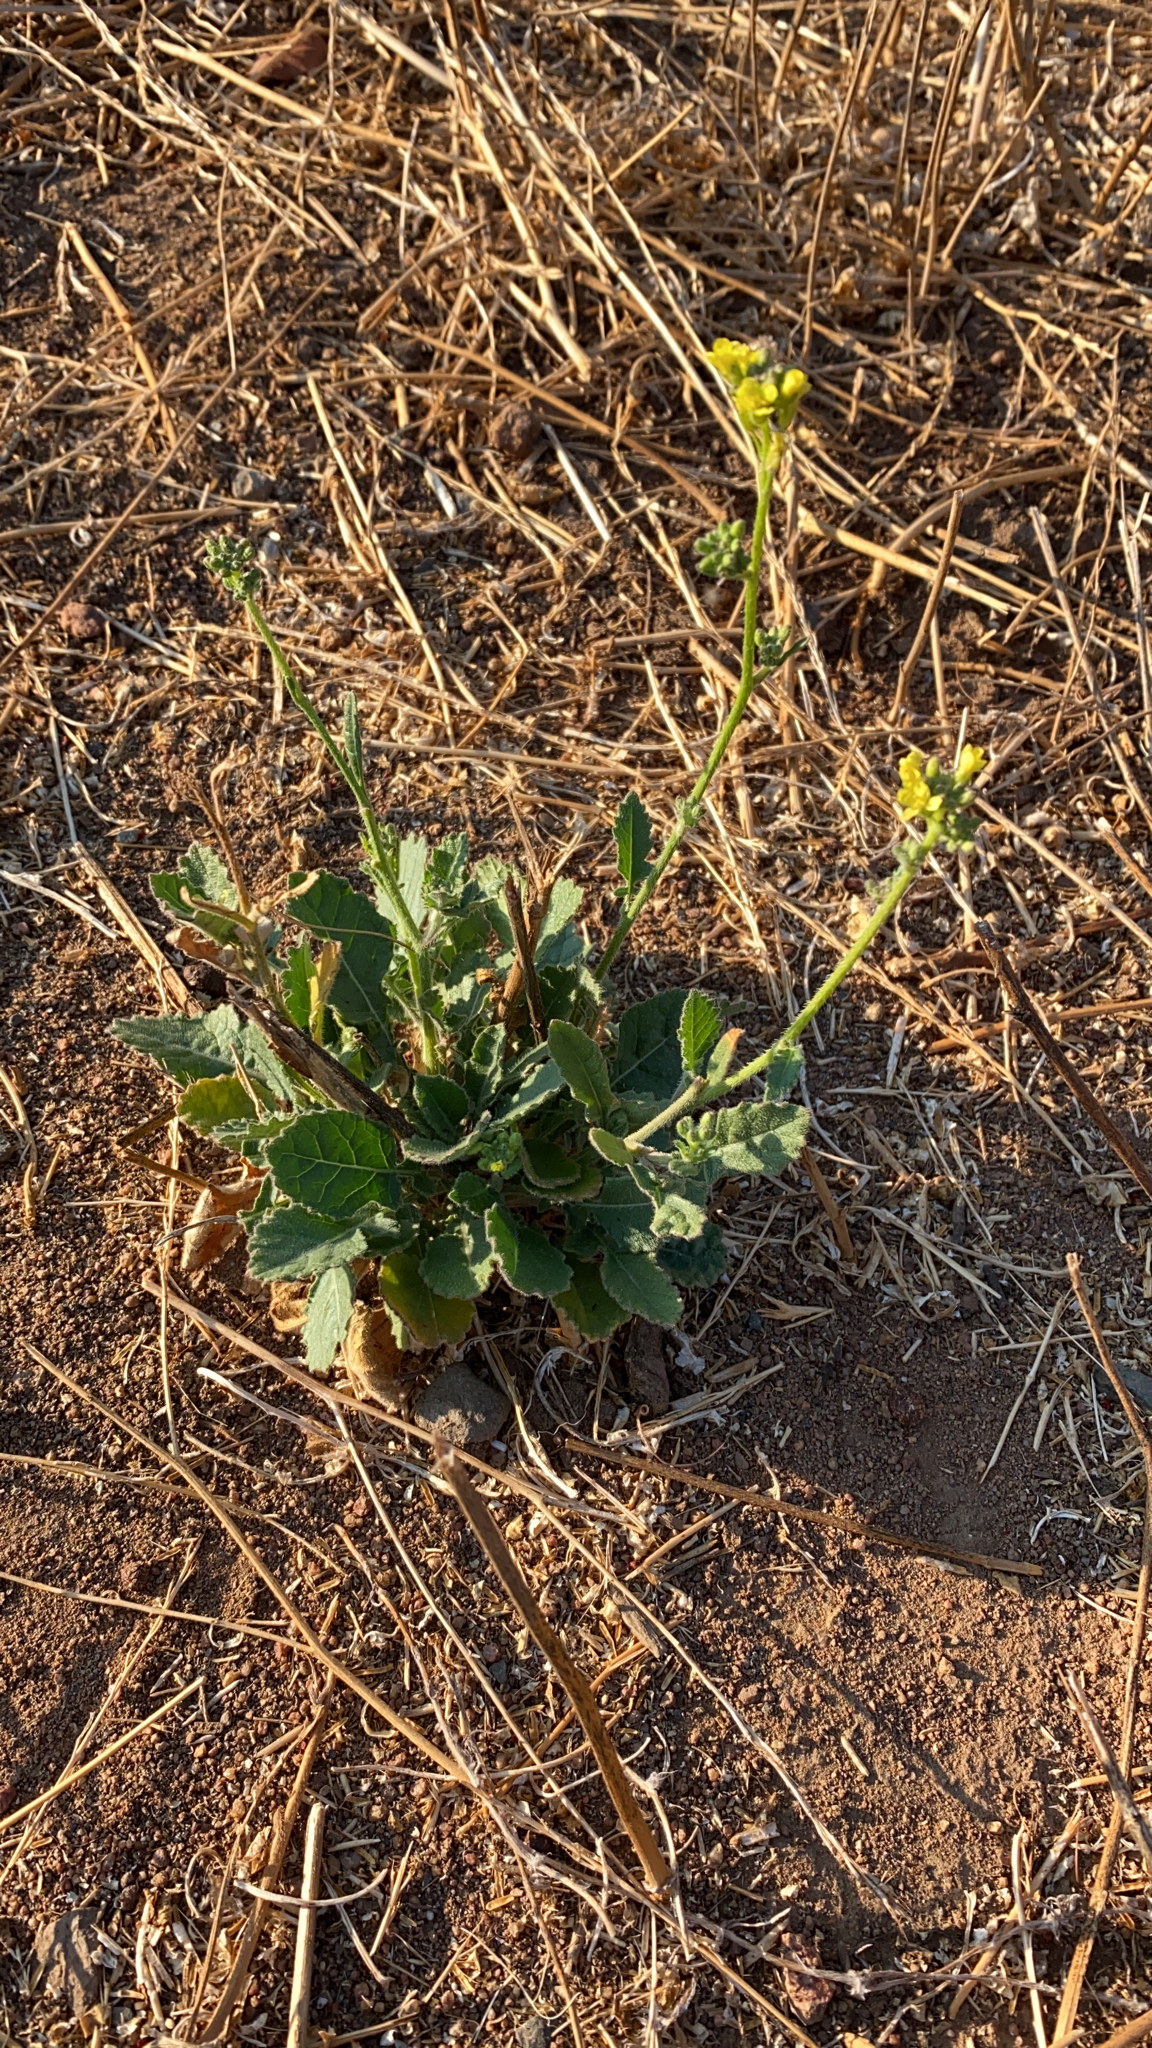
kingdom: Plantae
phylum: Tracheophyta
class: Magnoliopsida
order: Brassicales
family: Brassicaceae
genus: Hirschfeldia
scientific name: Hirschfeldia incana
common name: Hoary mustard
